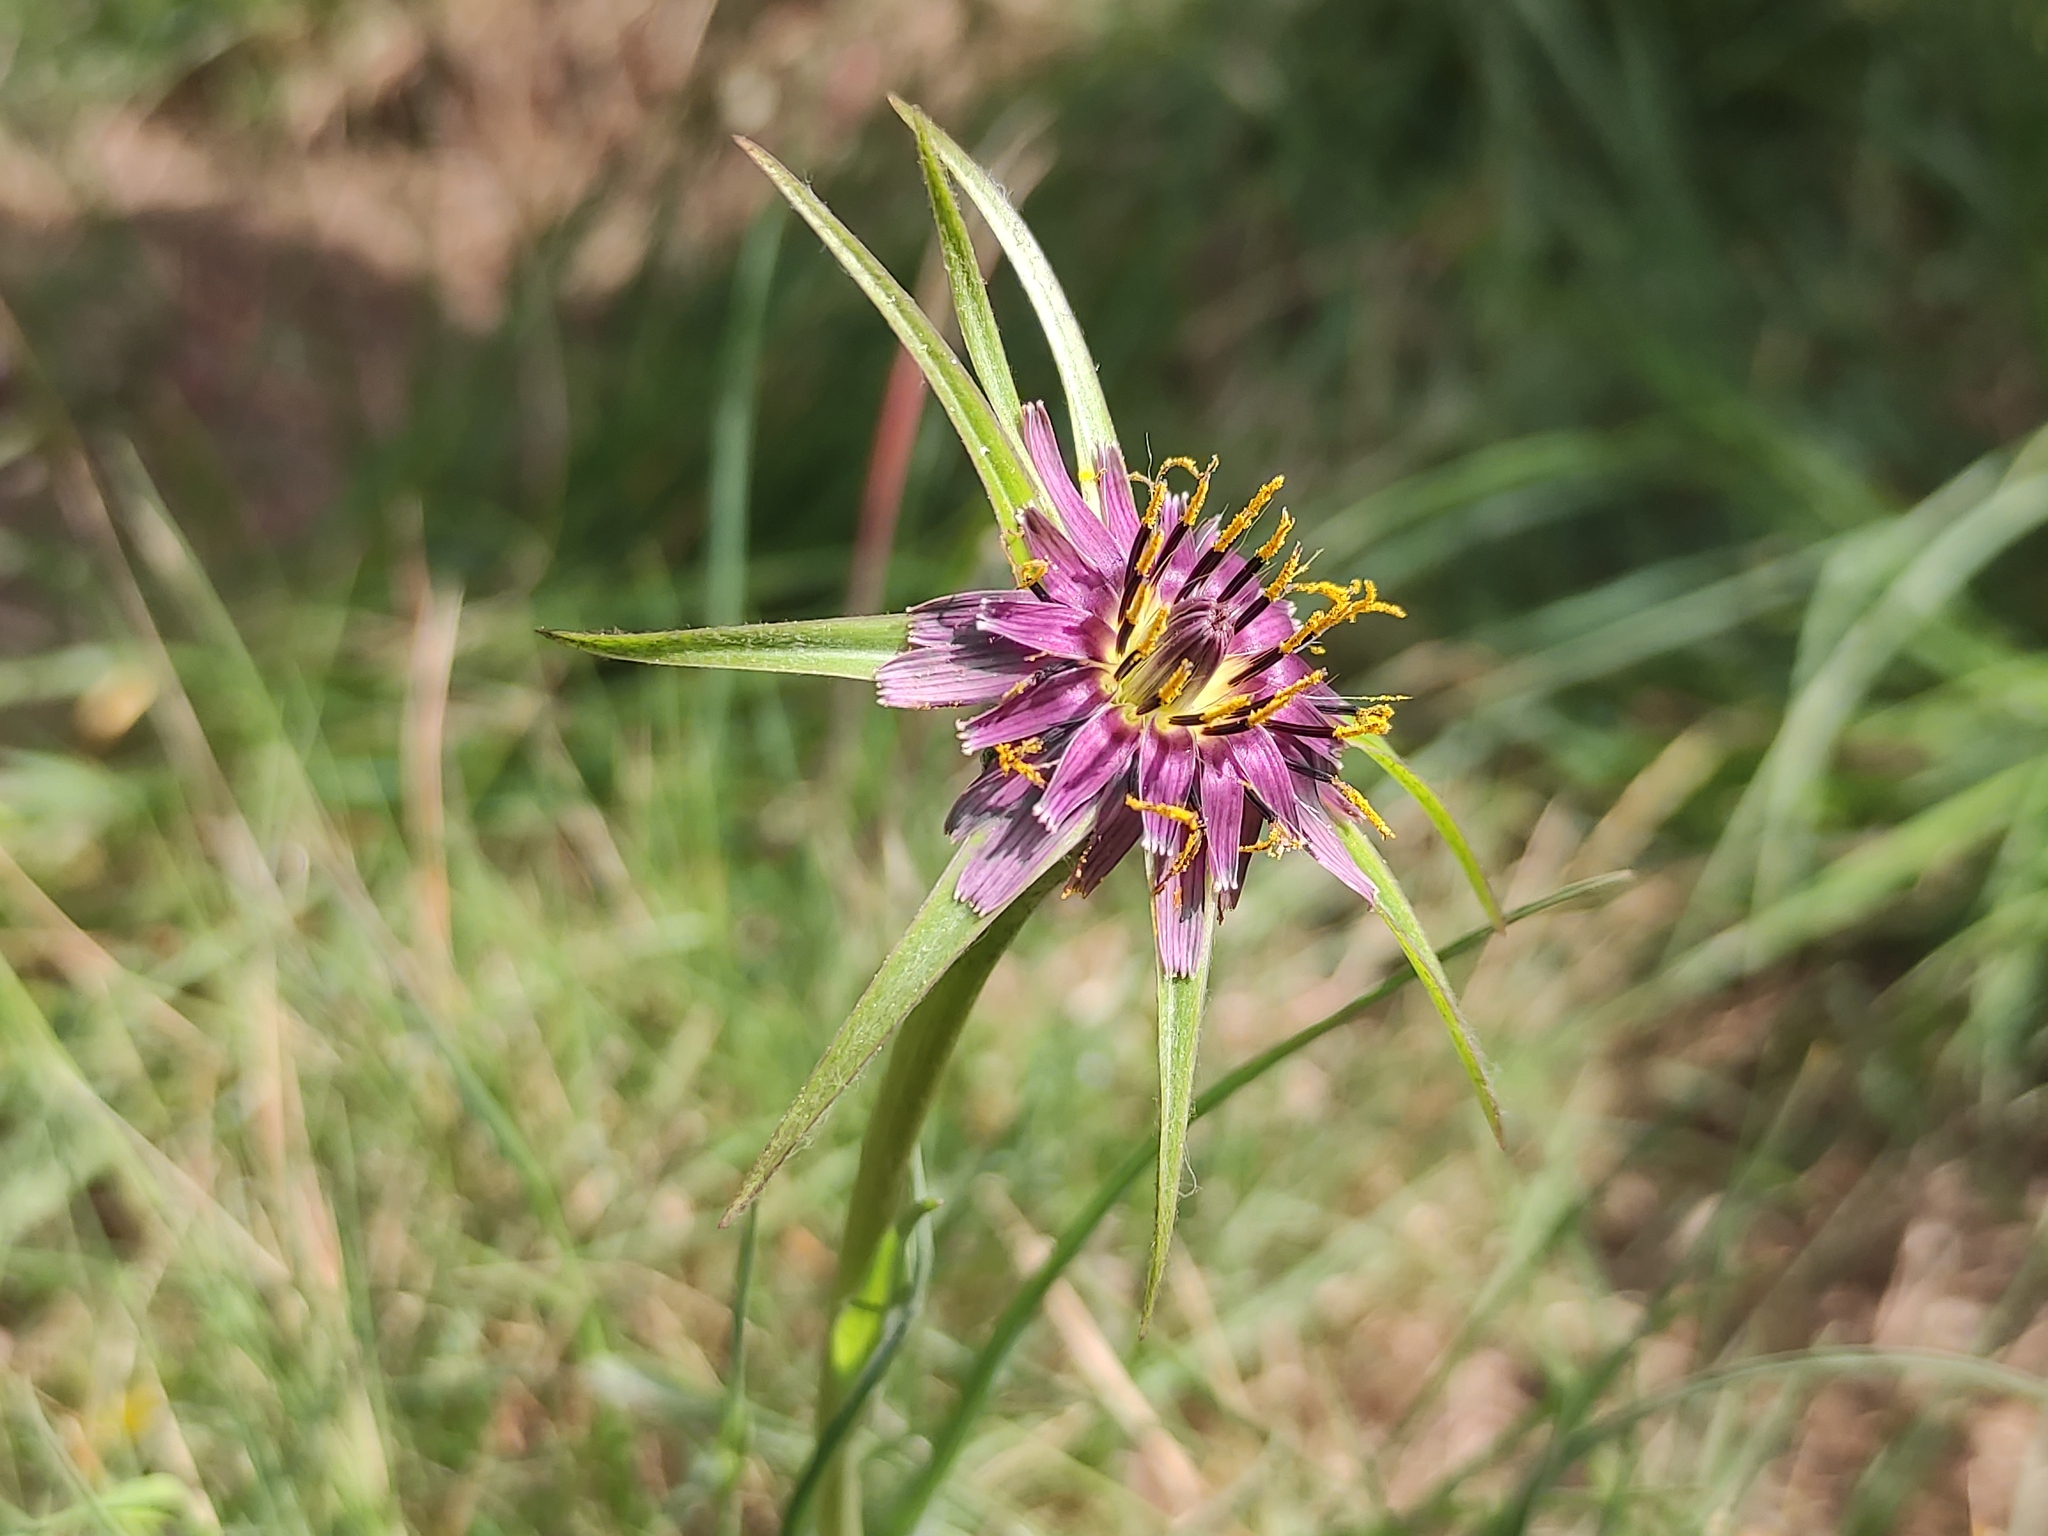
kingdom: Plantae
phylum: Tracheophyta
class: Magnoliopsida
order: Asterales
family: Asteraceae
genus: Tragopogon
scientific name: Tragopogon porrifolius
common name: Salsify
